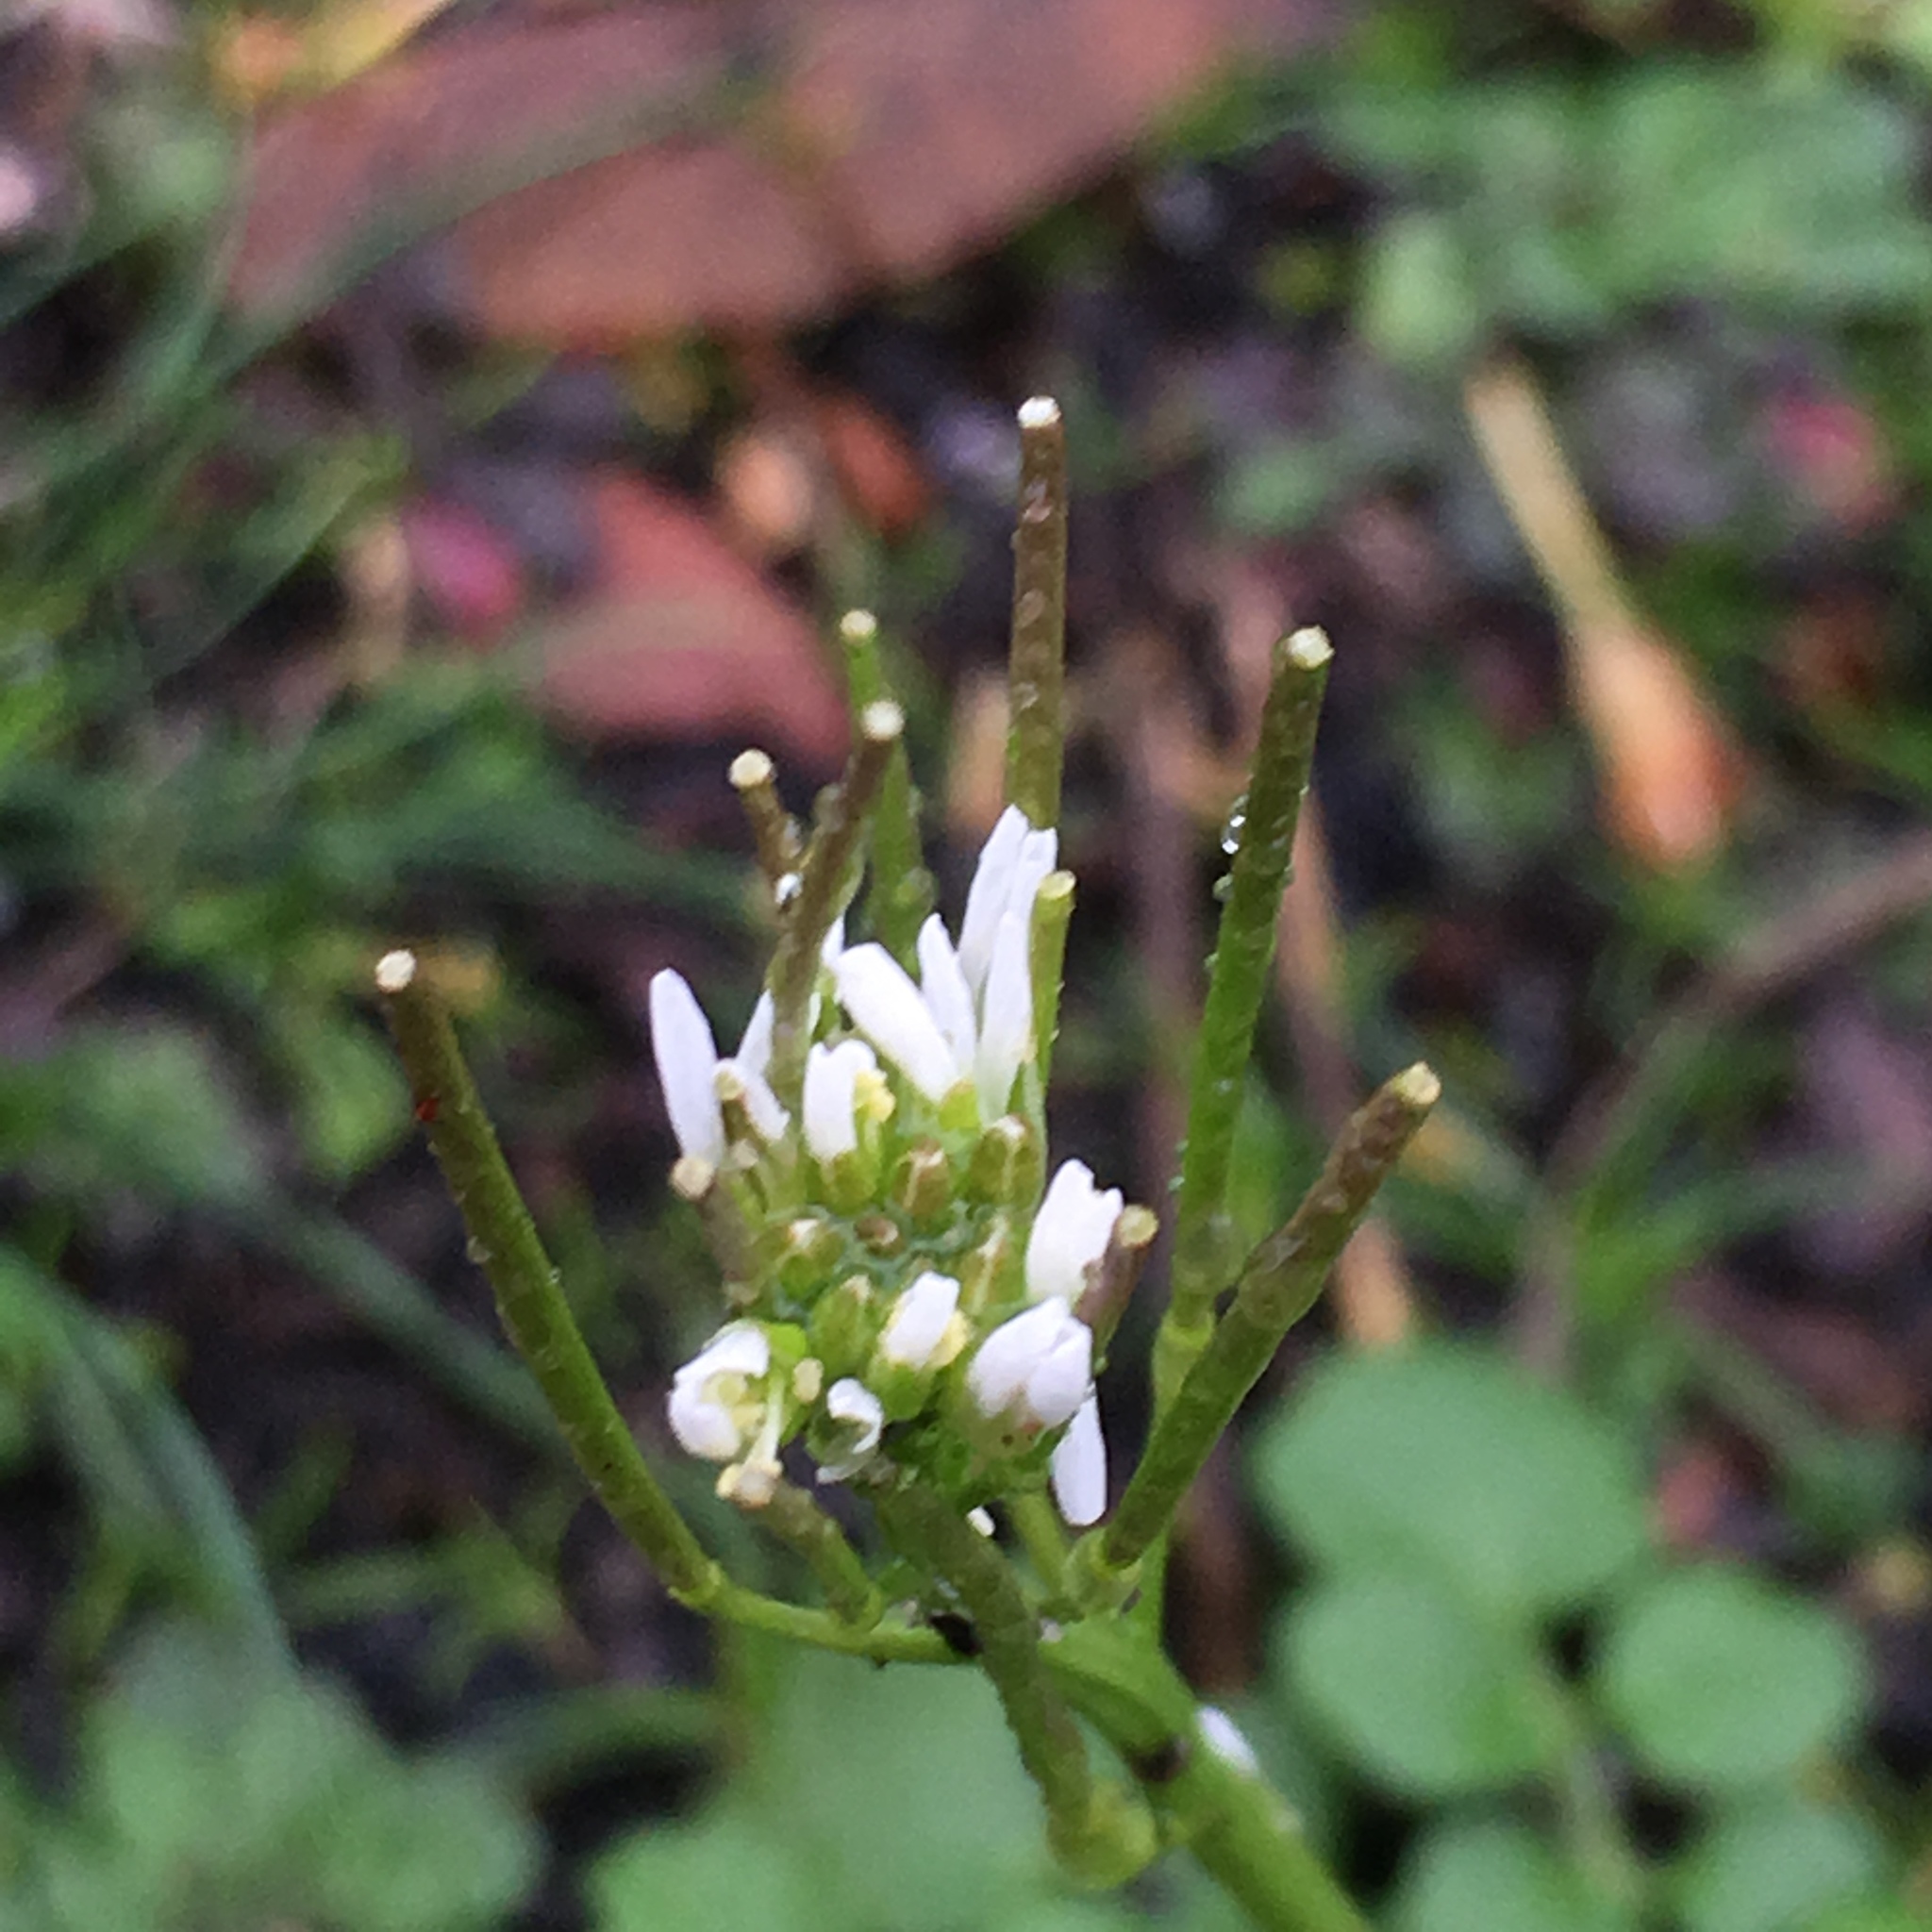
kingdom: Plantae
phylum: Tracheophyta
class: Magnoliopsida
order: Brassicales
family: Brassicaceae
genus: Cardamine
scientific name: Cardamine hirsuta
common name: Hairy bittercress
